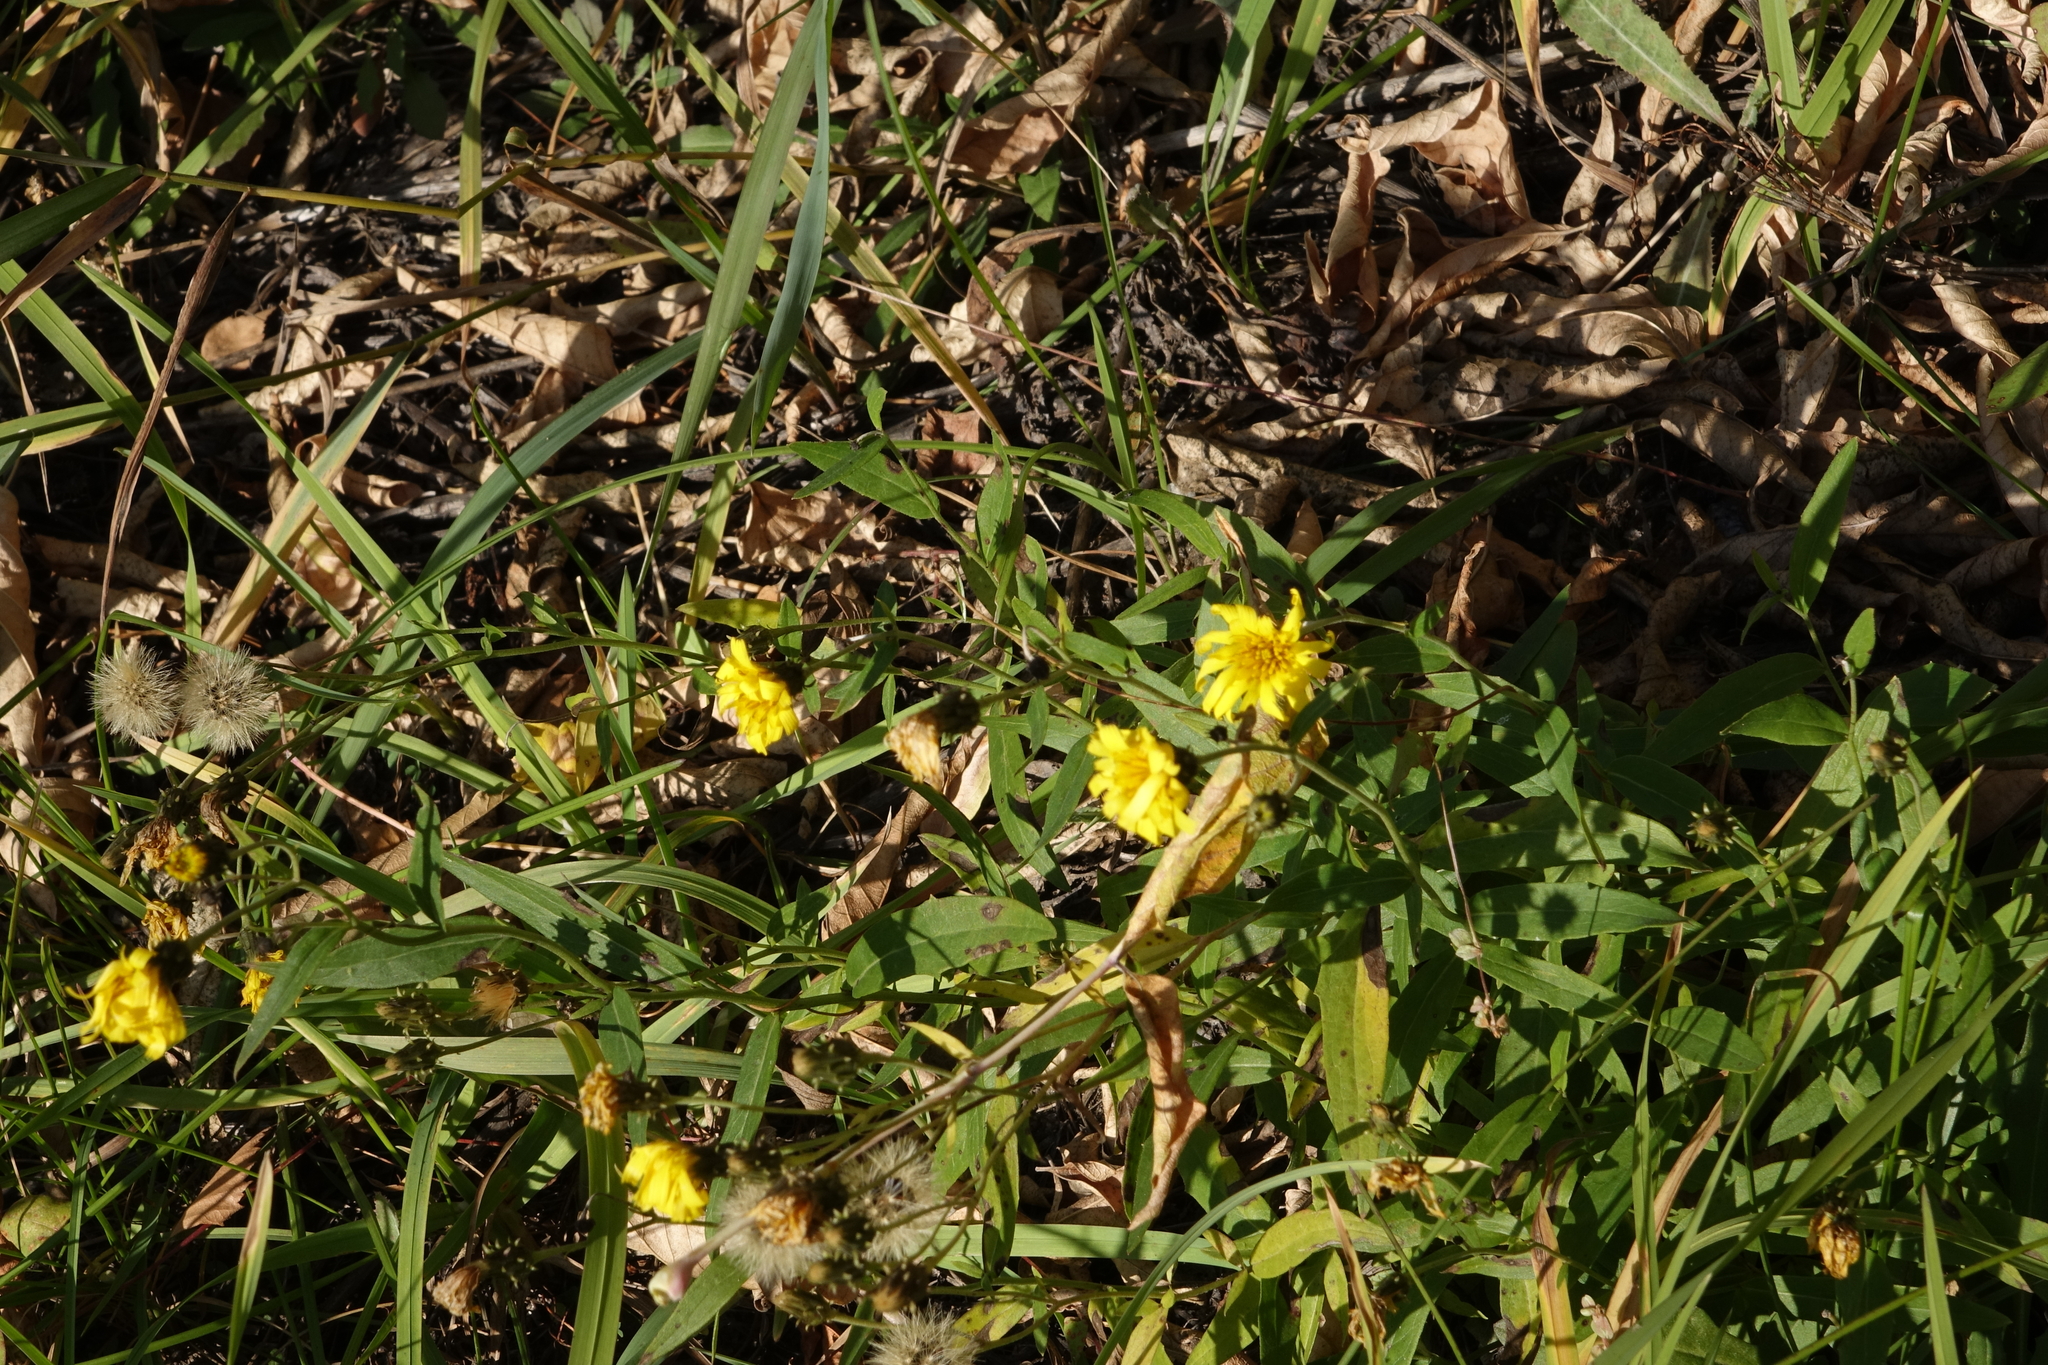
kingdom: Plantae
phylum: Tracheophyta
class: Magnoliopsida
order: Asterales
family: Asteraceae
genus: Hieracium
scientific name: Hieracium umbellatum
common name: Northern hawkweed
